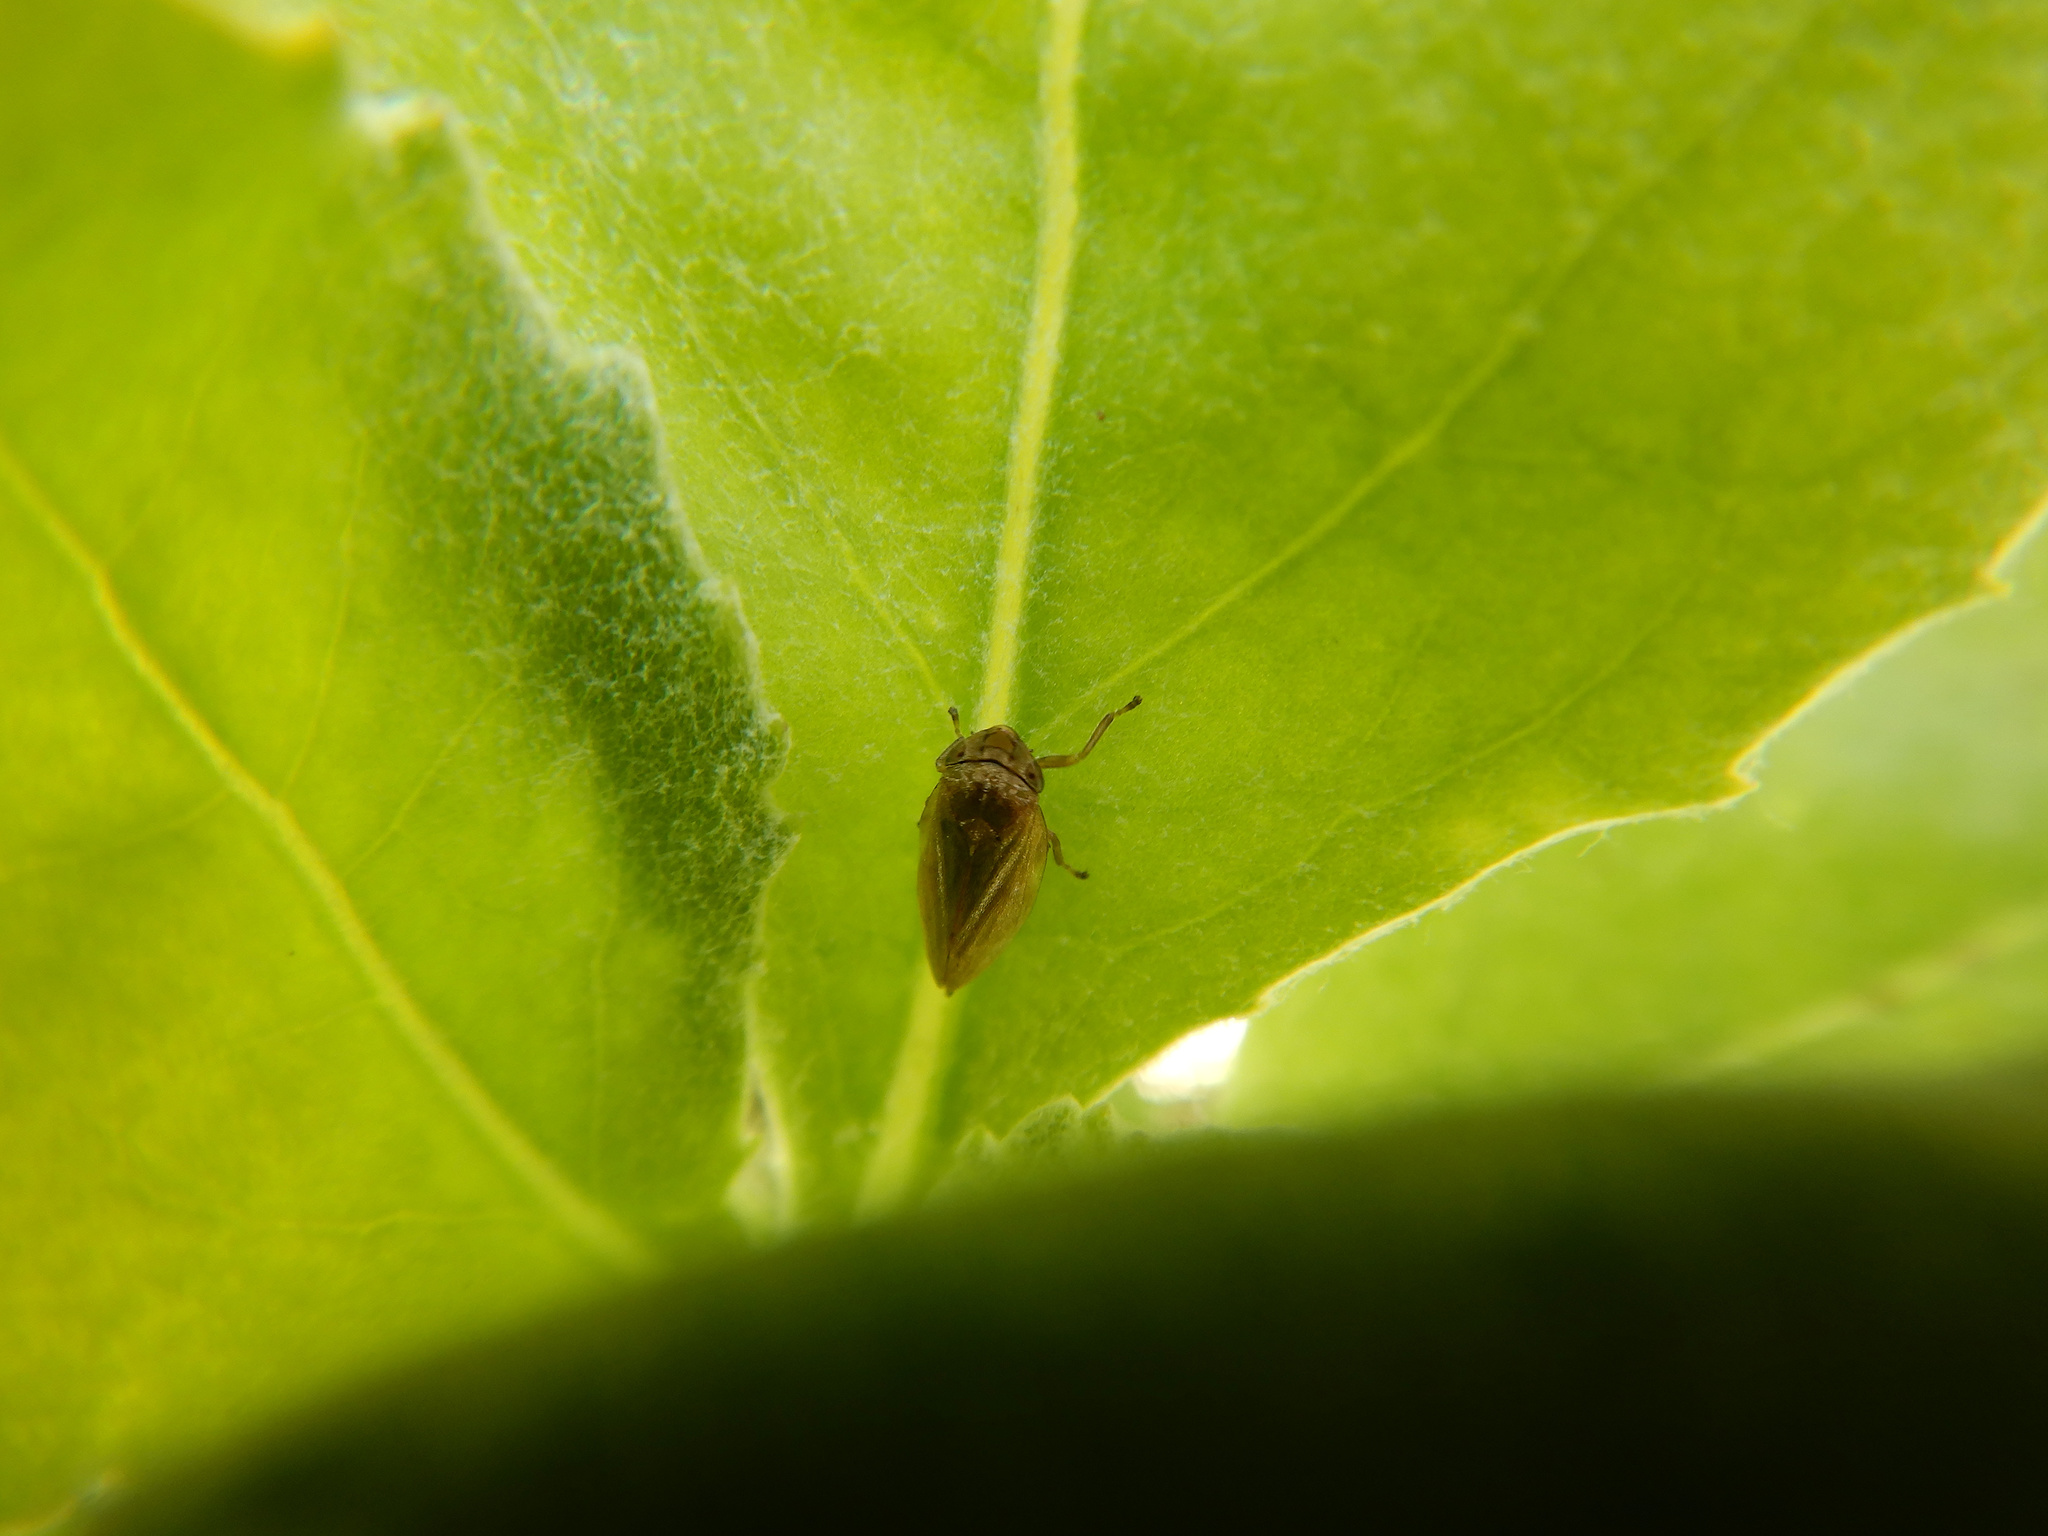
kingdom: Animalia
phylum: Arthropoda
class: Insecta
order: Hemiptera
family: Aphrophoridae
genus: Philaenus
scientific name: Philaenus spumarius
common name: Meadow spittlebug
